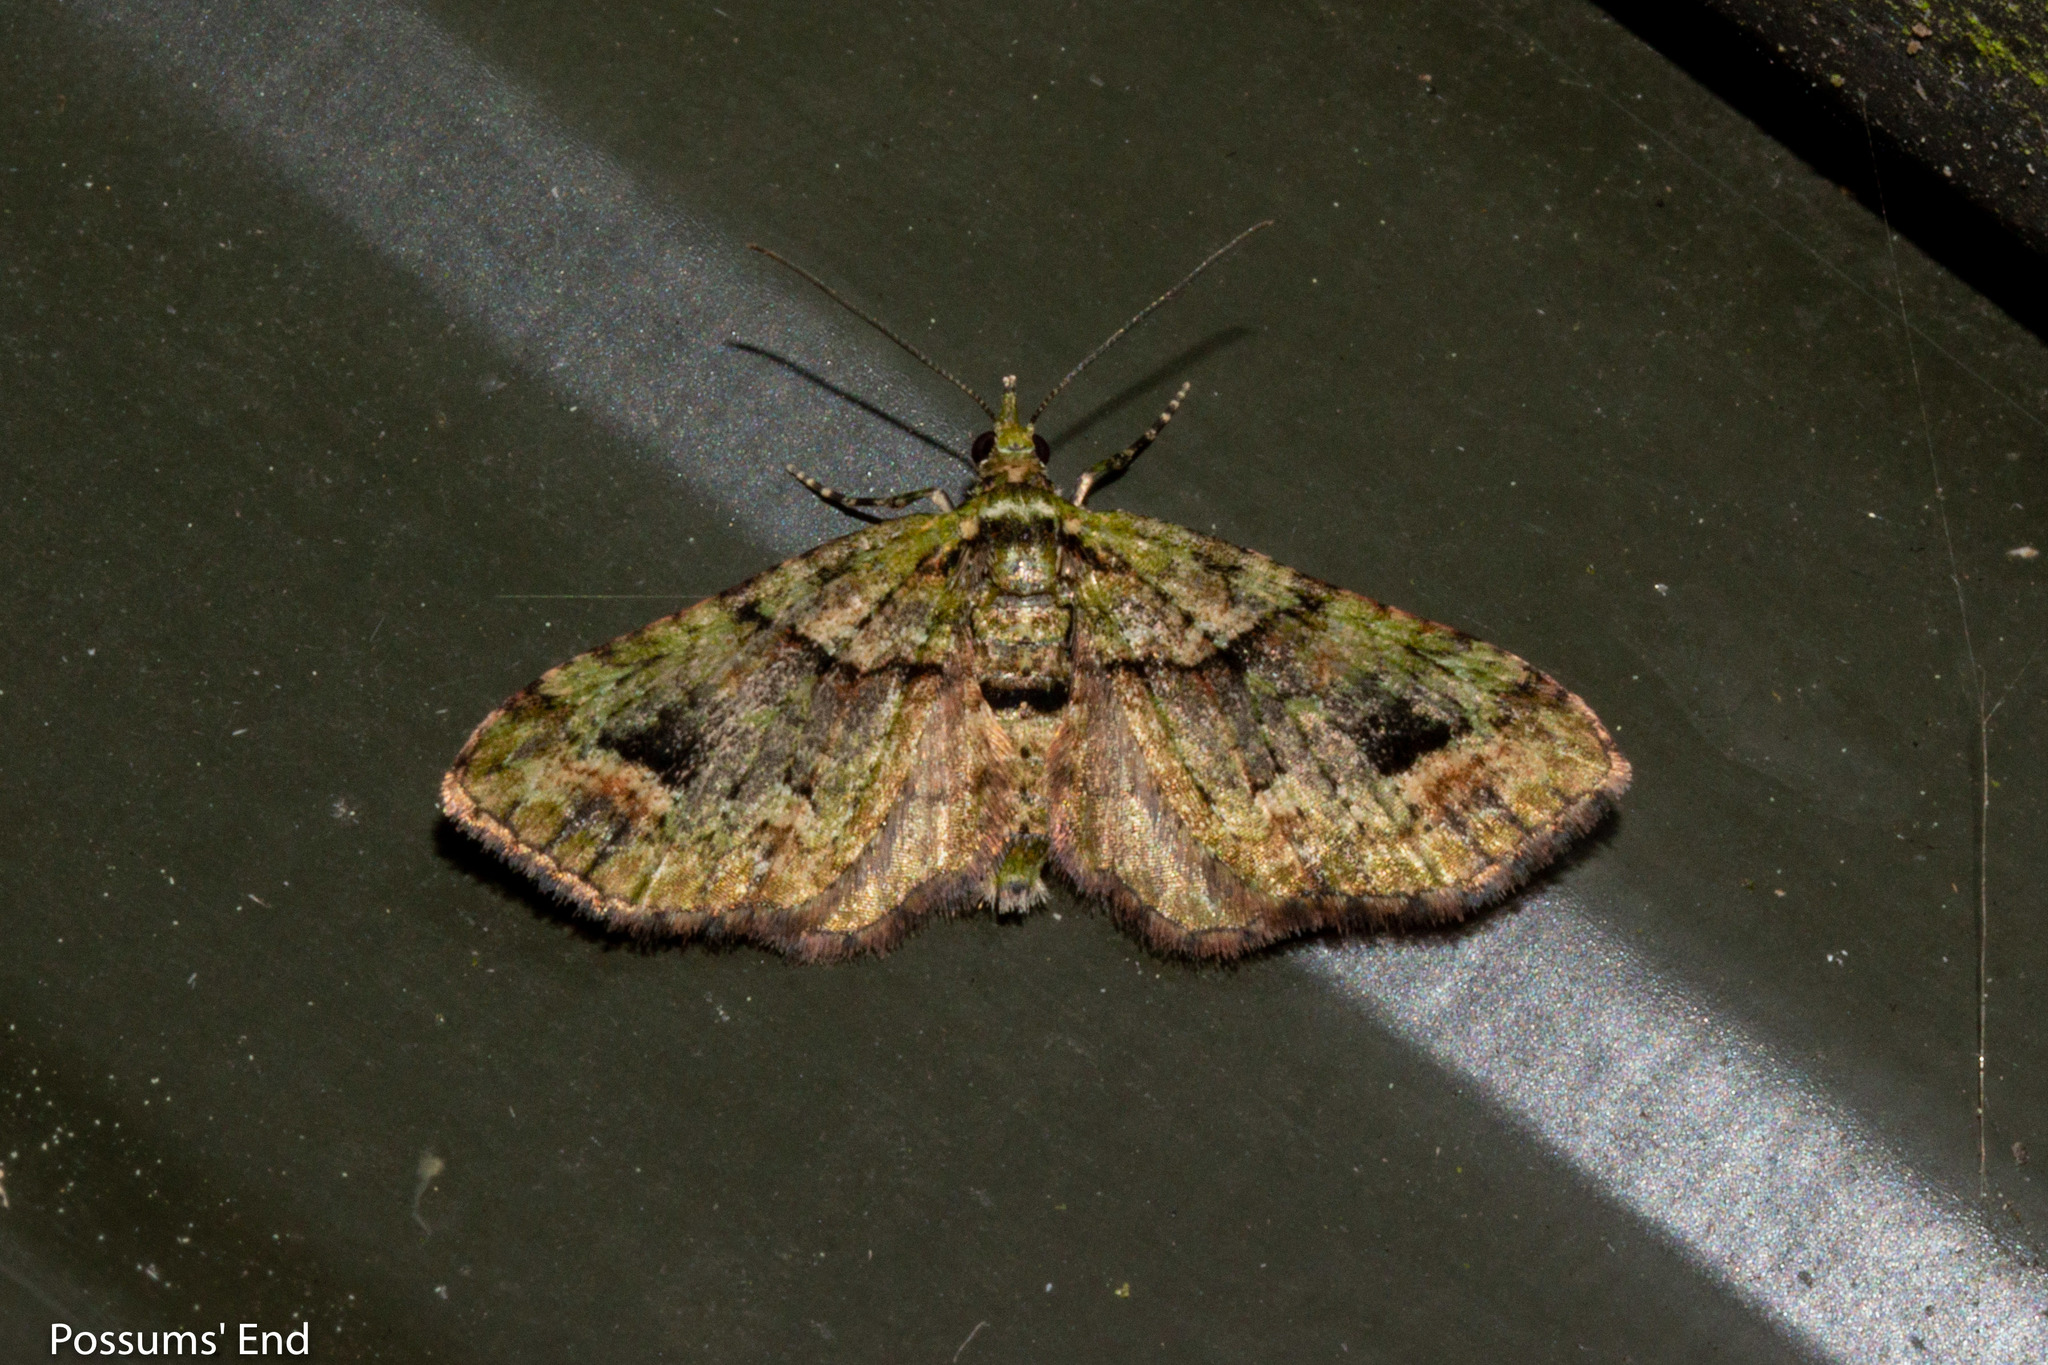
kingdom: Animalia
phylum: Arthropoda
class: Insecta
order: Lepidoptera
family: Geometridae
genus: Idaea
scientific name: Idaea mutanda
